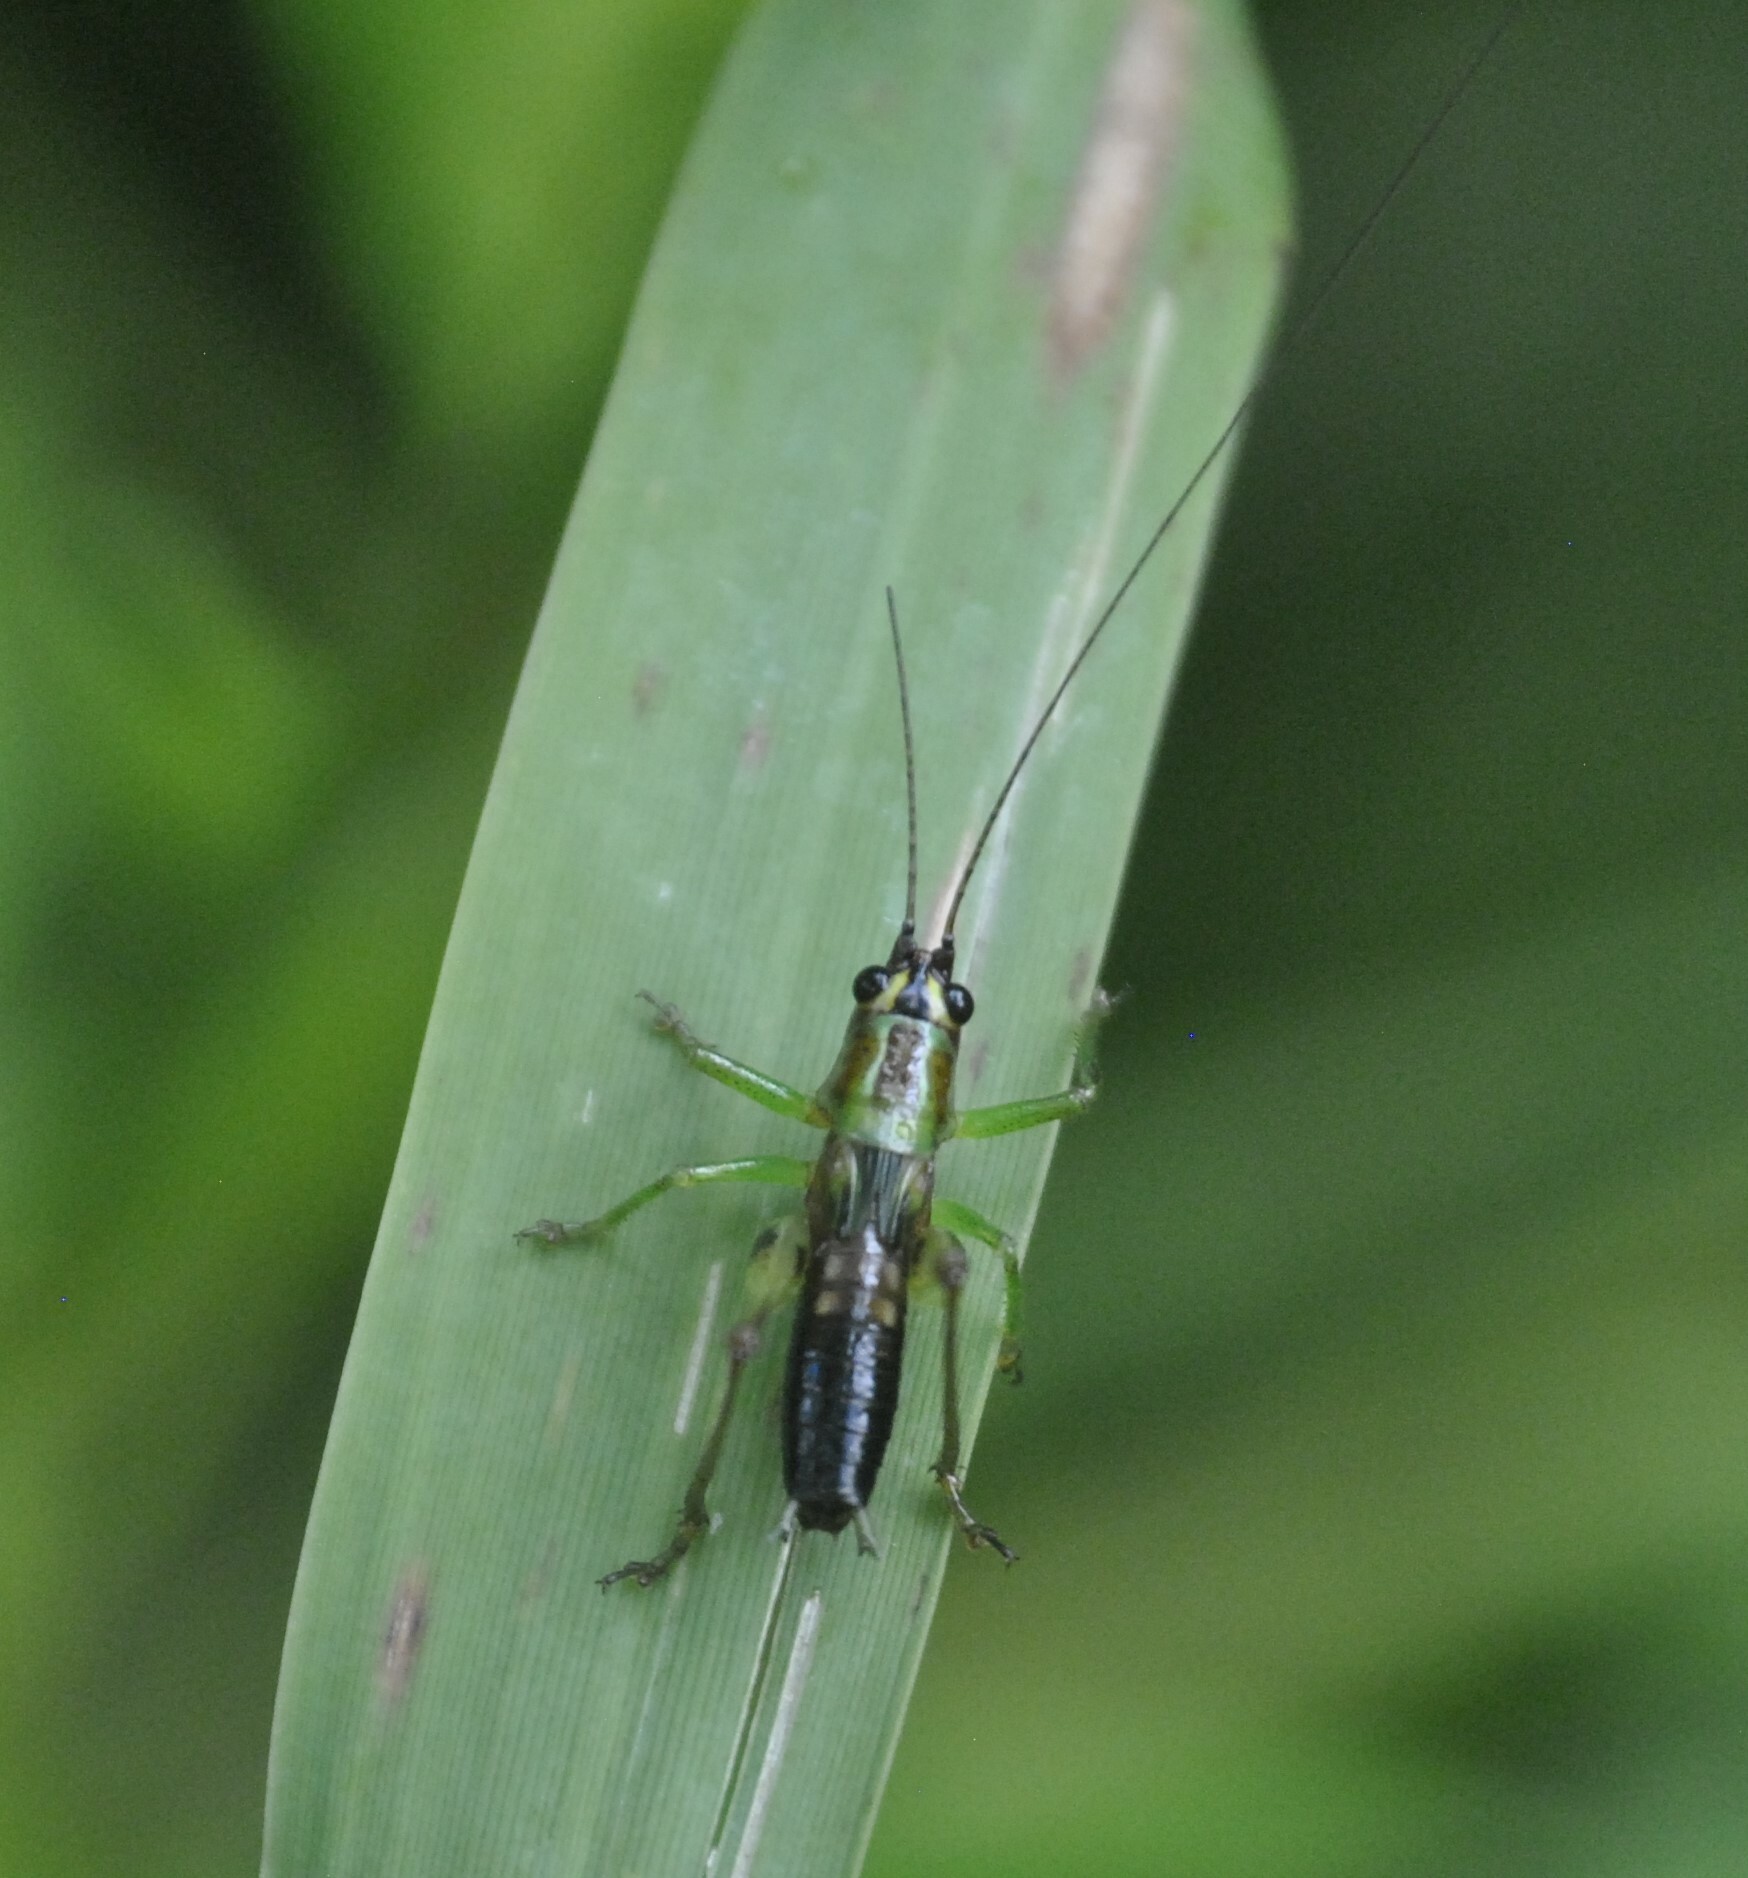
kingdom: Animalia
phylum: Arthropoda
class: Insecta
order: Orthoptera
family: Tettigoniidae
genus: Conocephalus
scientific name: Conocephalus nigropleurum
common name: Black-sided meadow katydid
